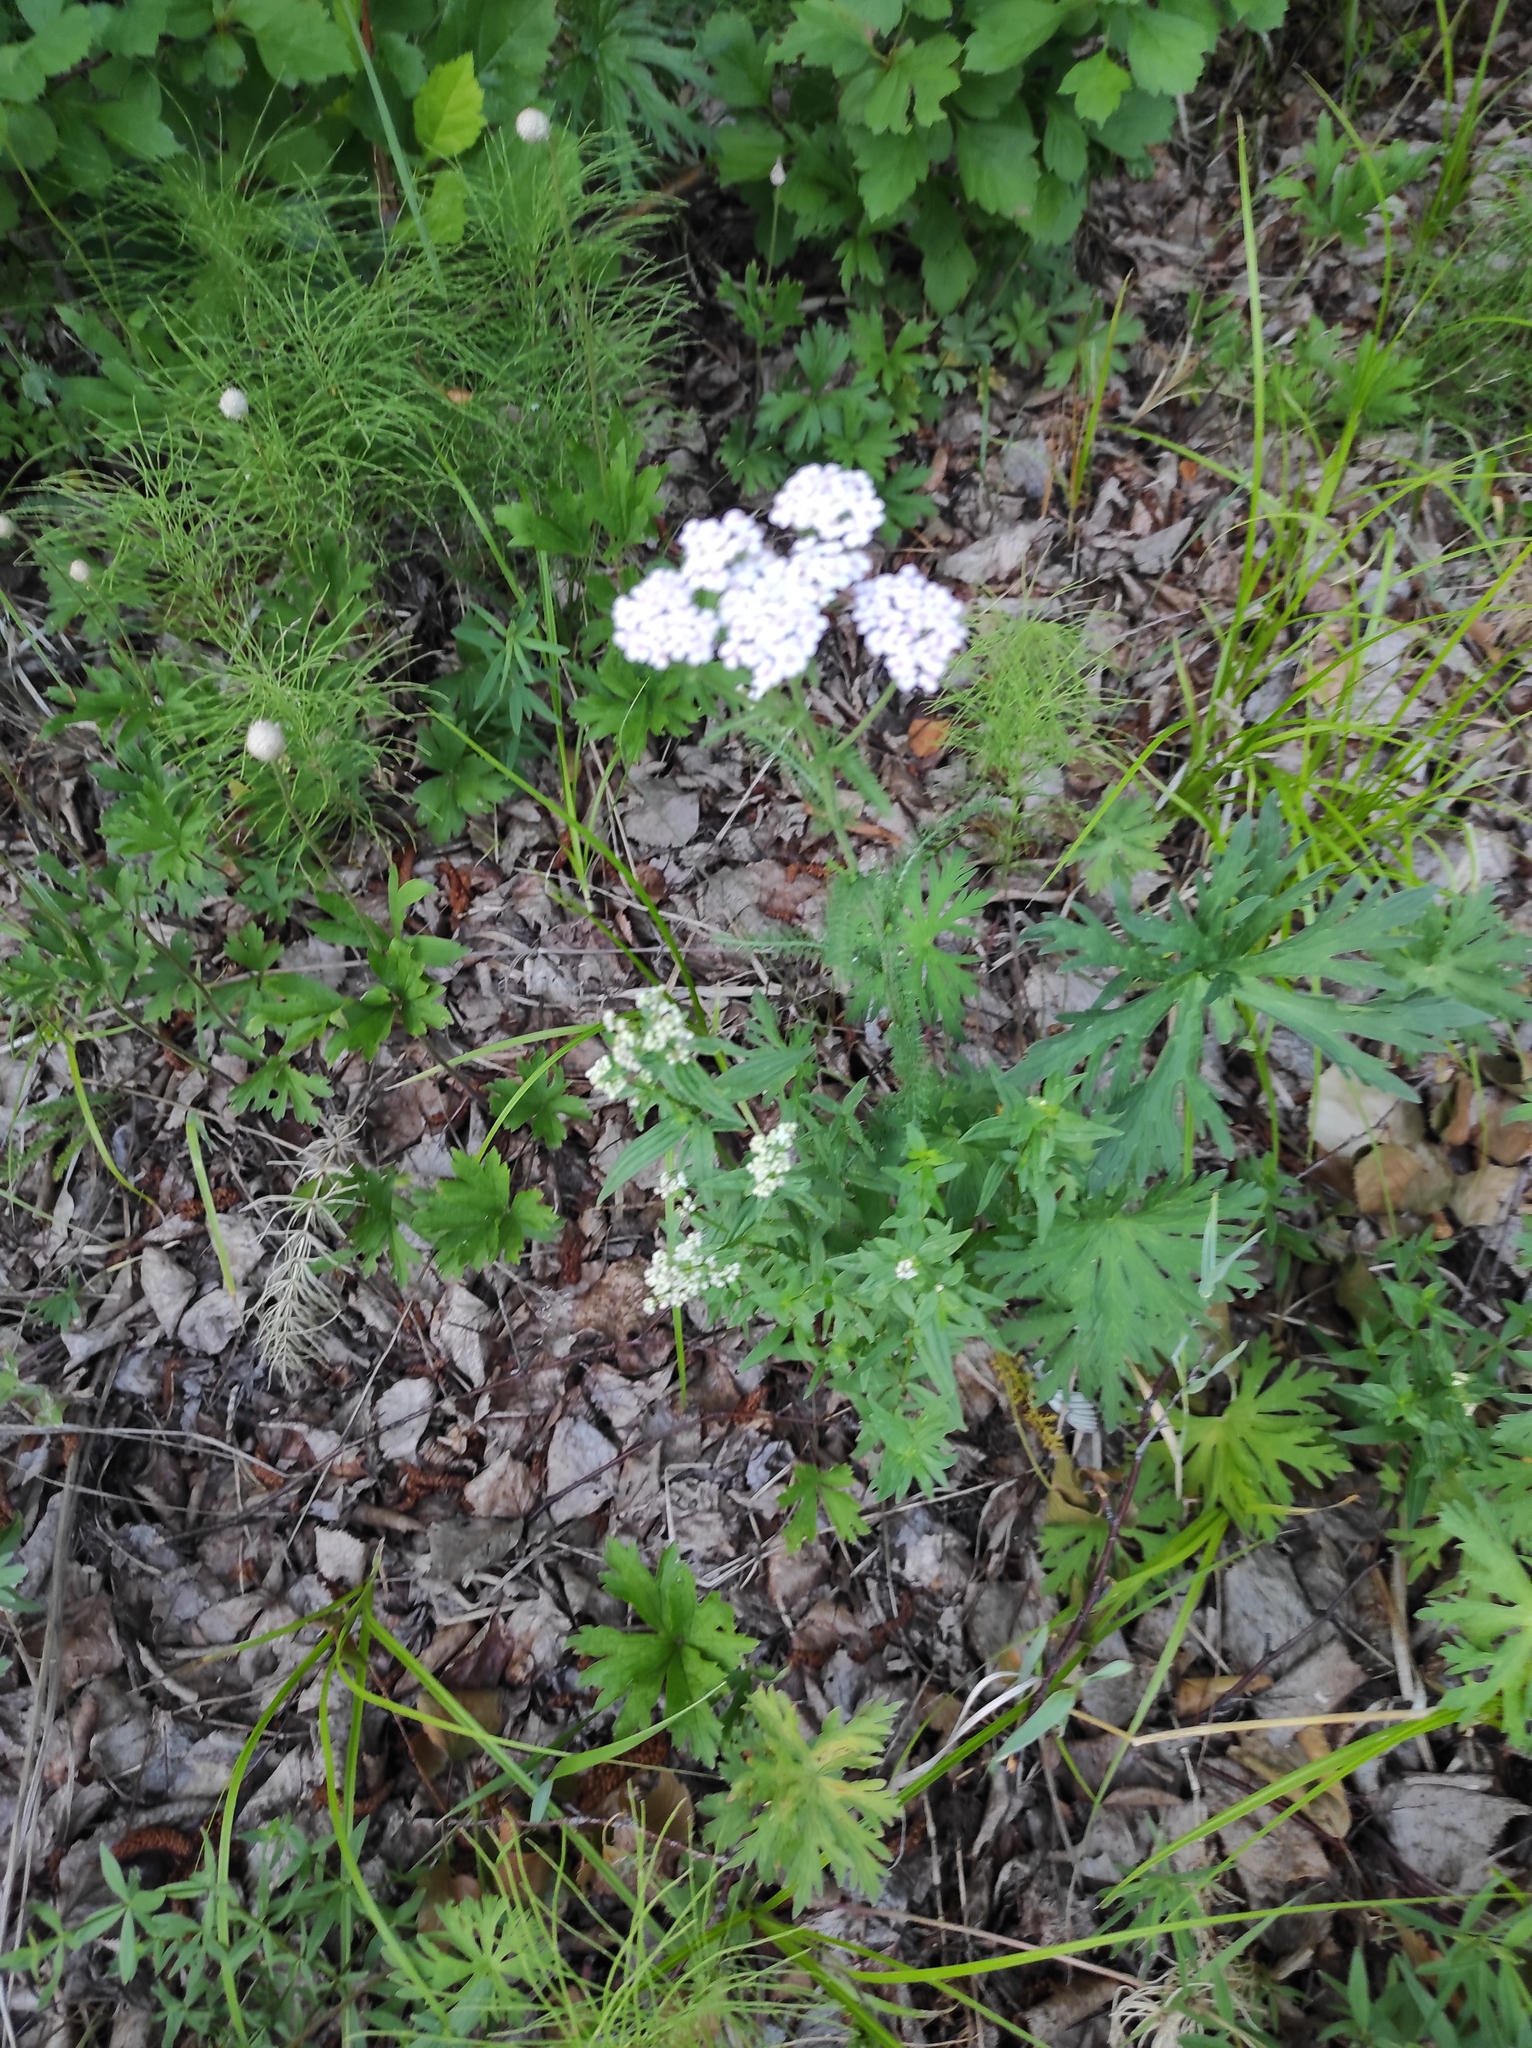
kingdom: Plantae
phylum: Tracheophyta
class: Magnoliopsida
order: Asterales
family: Asteraceae
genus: Achillea
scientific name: Achillea millefolium
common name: Yarrow
